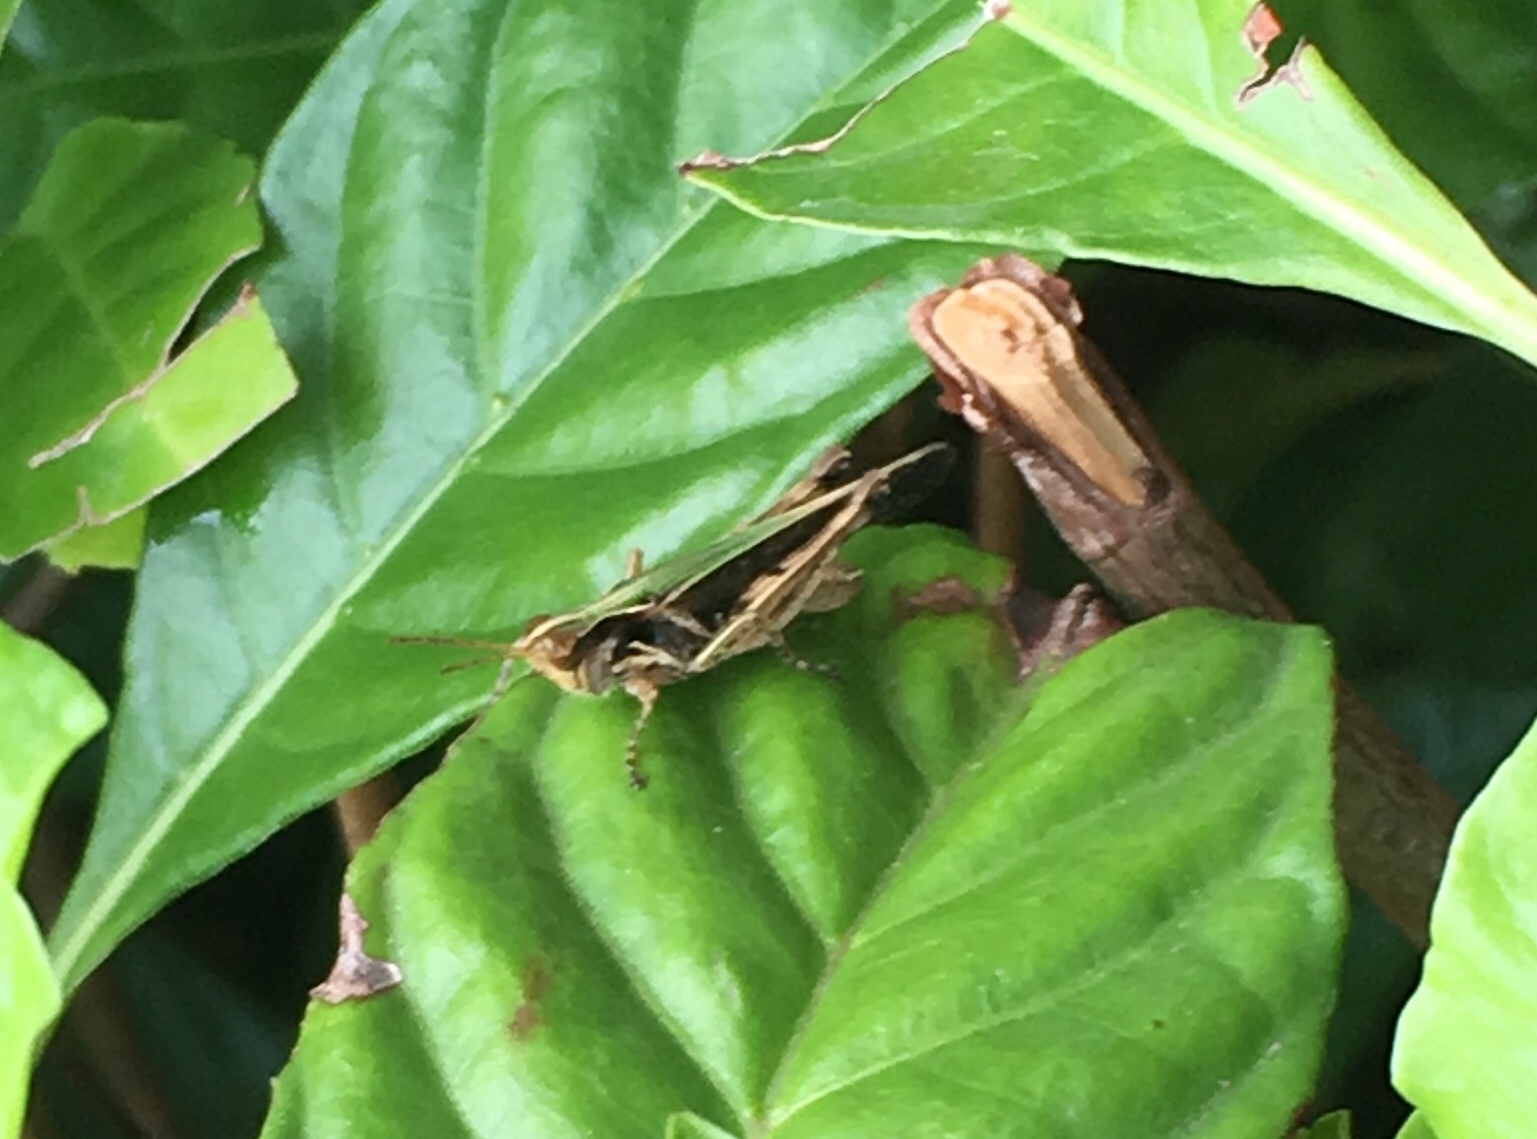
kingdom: Animalia
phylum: Arthropoda
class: Insecta
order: Orthoptera
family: Acrididae
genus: Orphulella
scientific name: Orphulella punctata
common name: Slant-faced grasshopper
